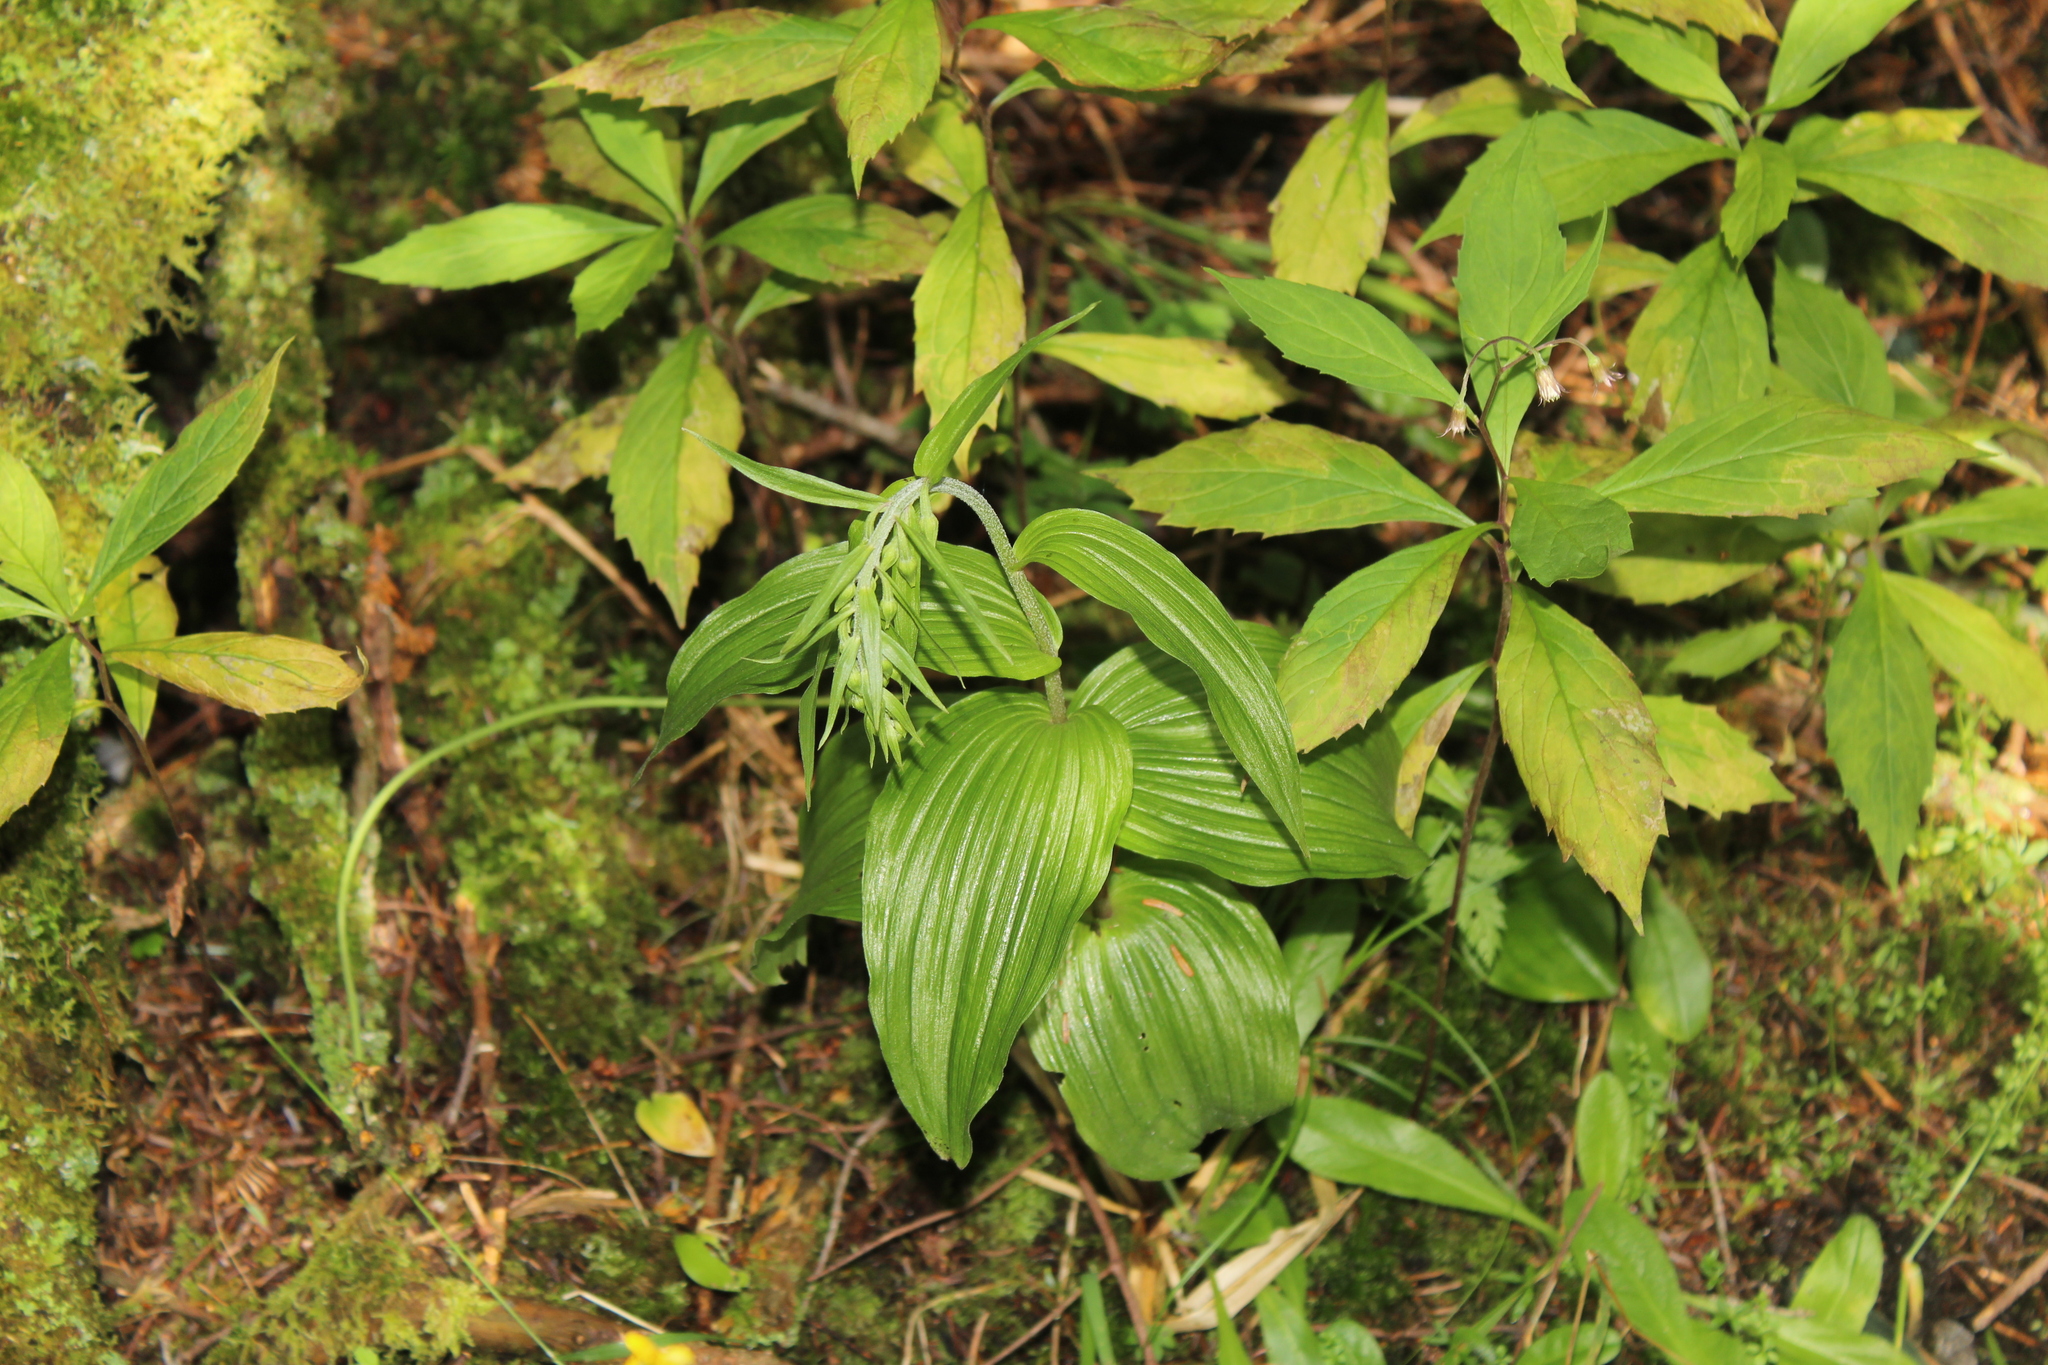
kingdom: Plantae
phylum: Tracheophyta
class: Liliopsida
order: Asparagales
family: Orchidaceae
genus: Epipactis
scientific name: Epipactis helleborine
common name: Broad-leaved helleborine
